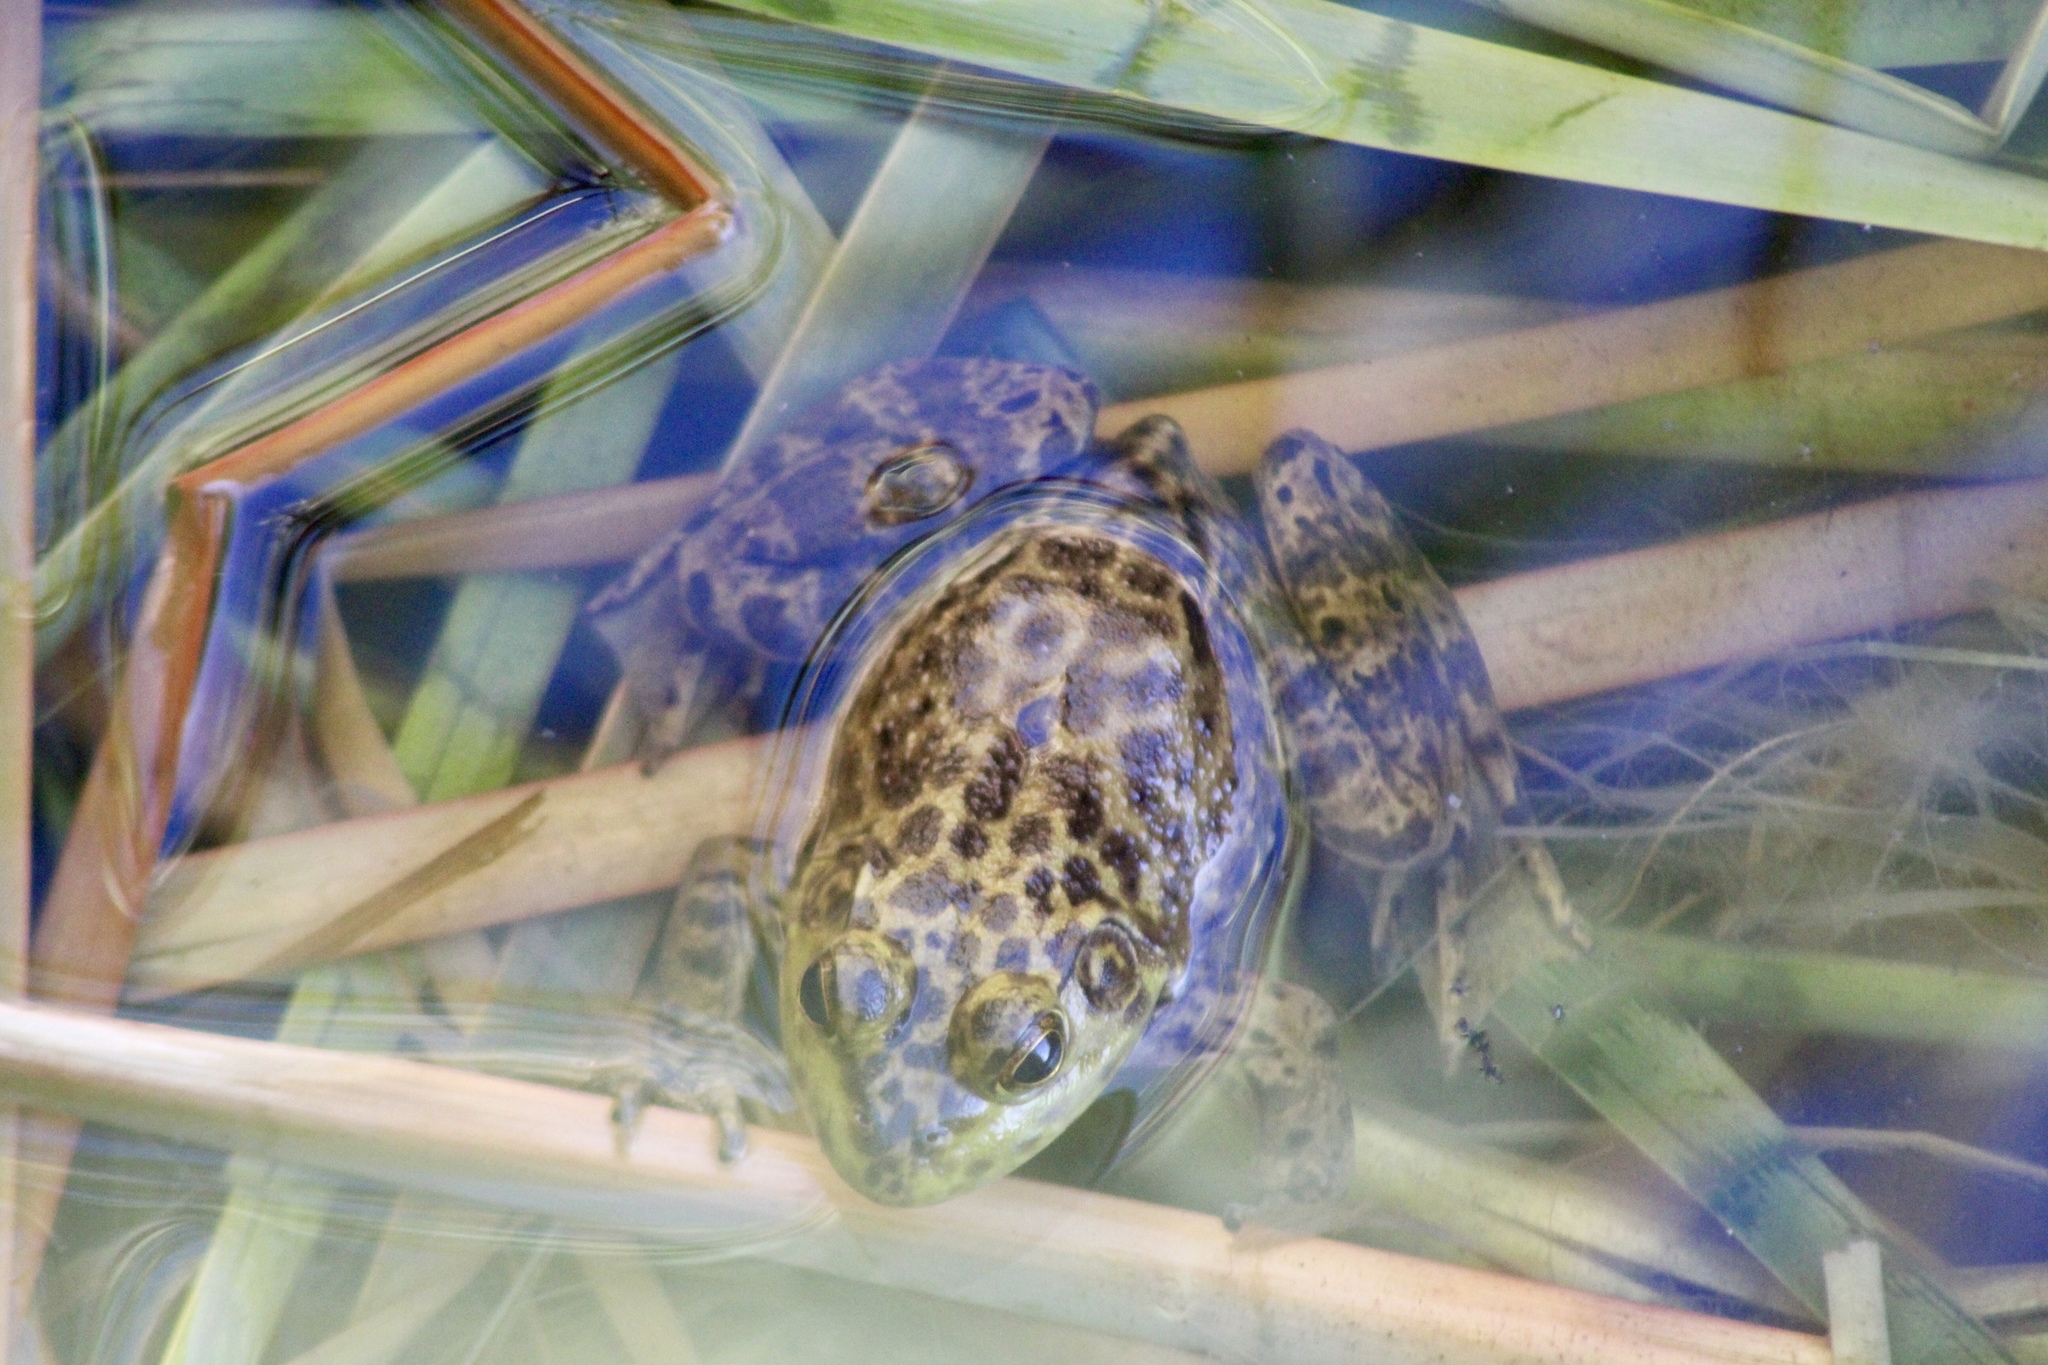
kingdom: Animalia
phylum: Chordata
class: Amphibia
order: Anura
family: Ranidae
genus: Lithobates
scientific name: Lithobates catesbeianus
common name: American bullfrog
